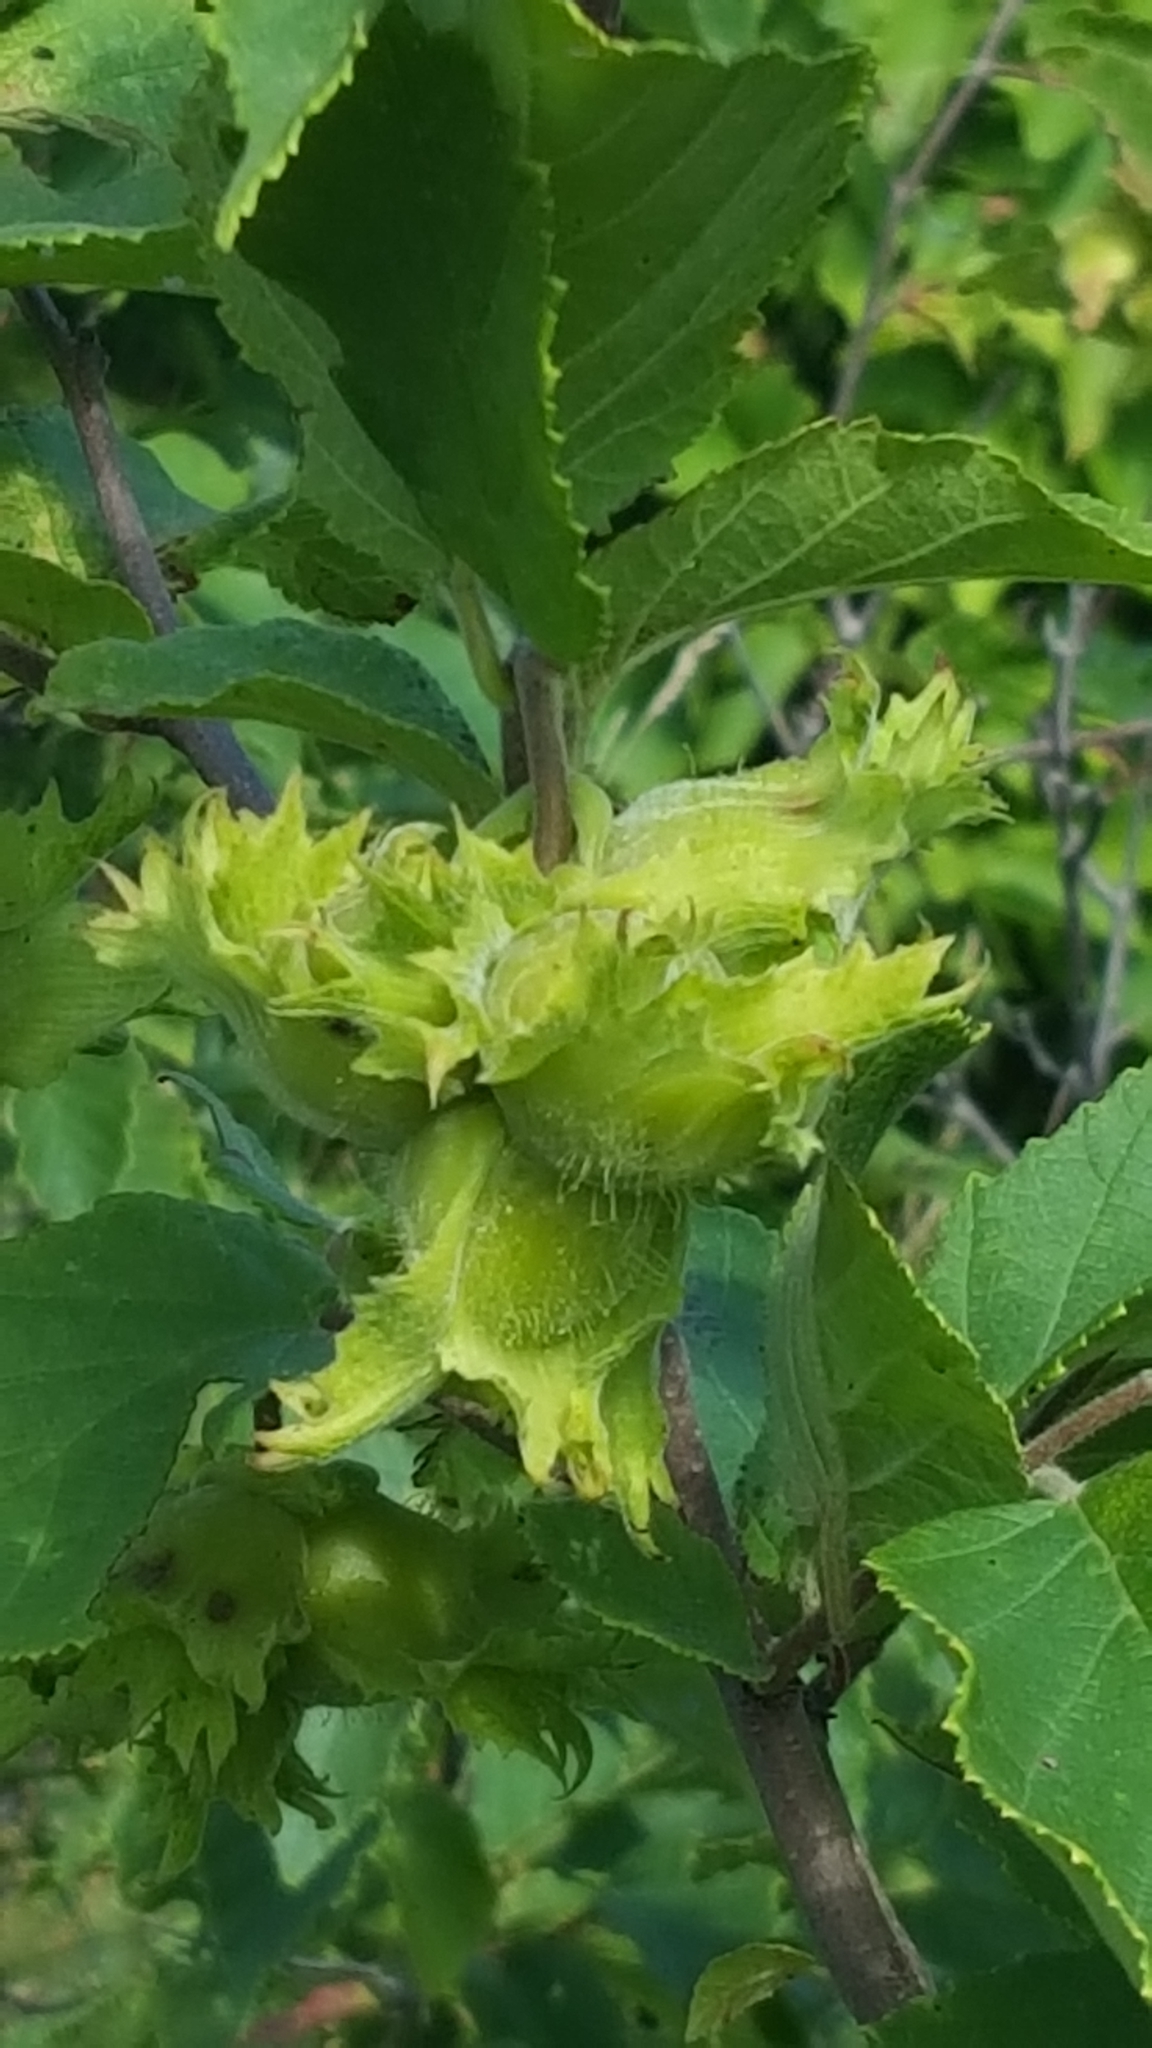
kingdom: Plantae
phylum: Tracheophyta
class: Magnoliopsida
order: Fagales
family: Betulaceae
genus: Corylus
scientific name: Corylus americana
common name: American hazel
